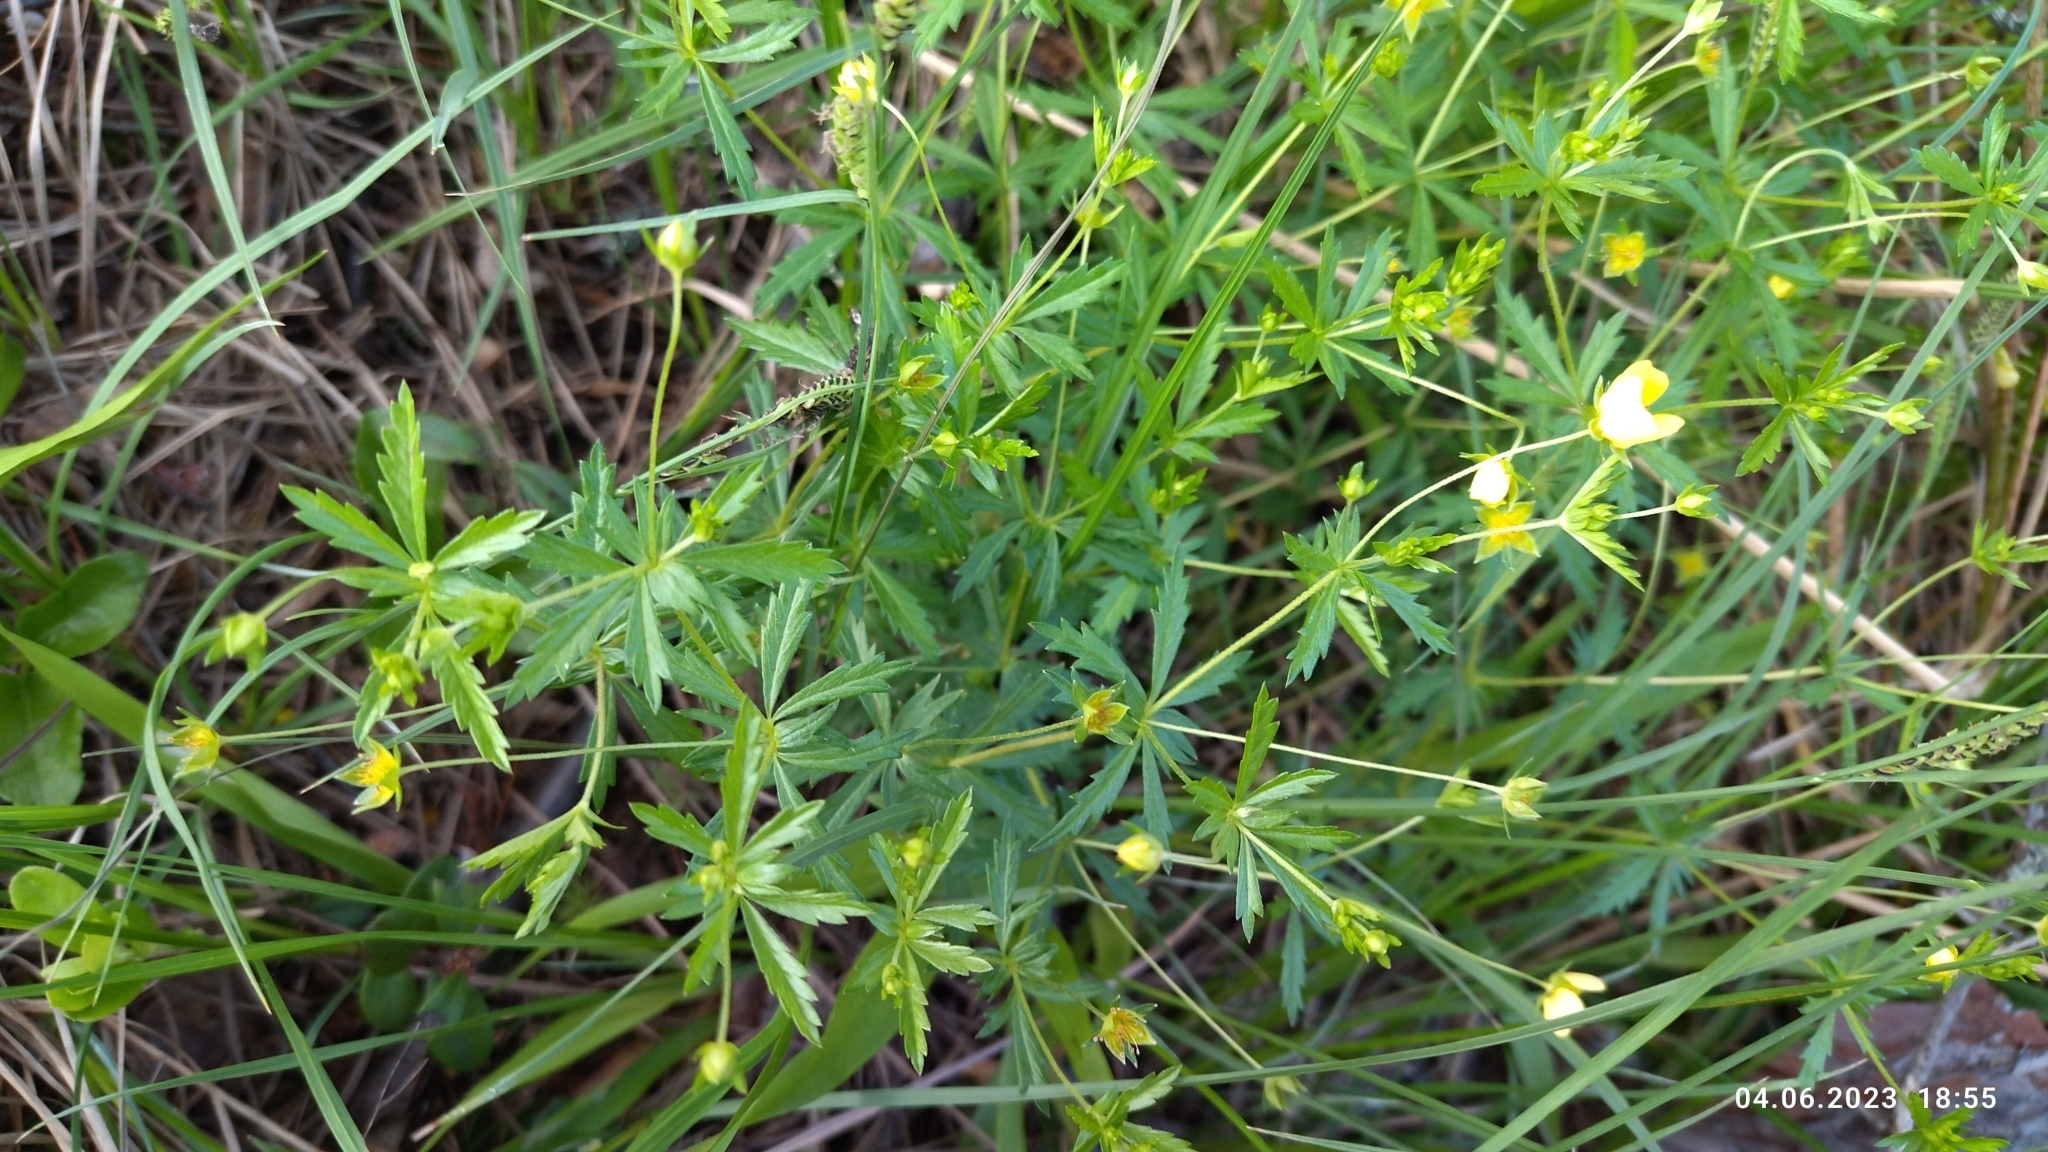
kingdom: Plantae
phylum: Tracheophyta
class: Magnoliopsida
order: Rosales
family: Rosaceae
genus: Potentilla
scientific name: Potentilla erecta
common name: Tormentil
